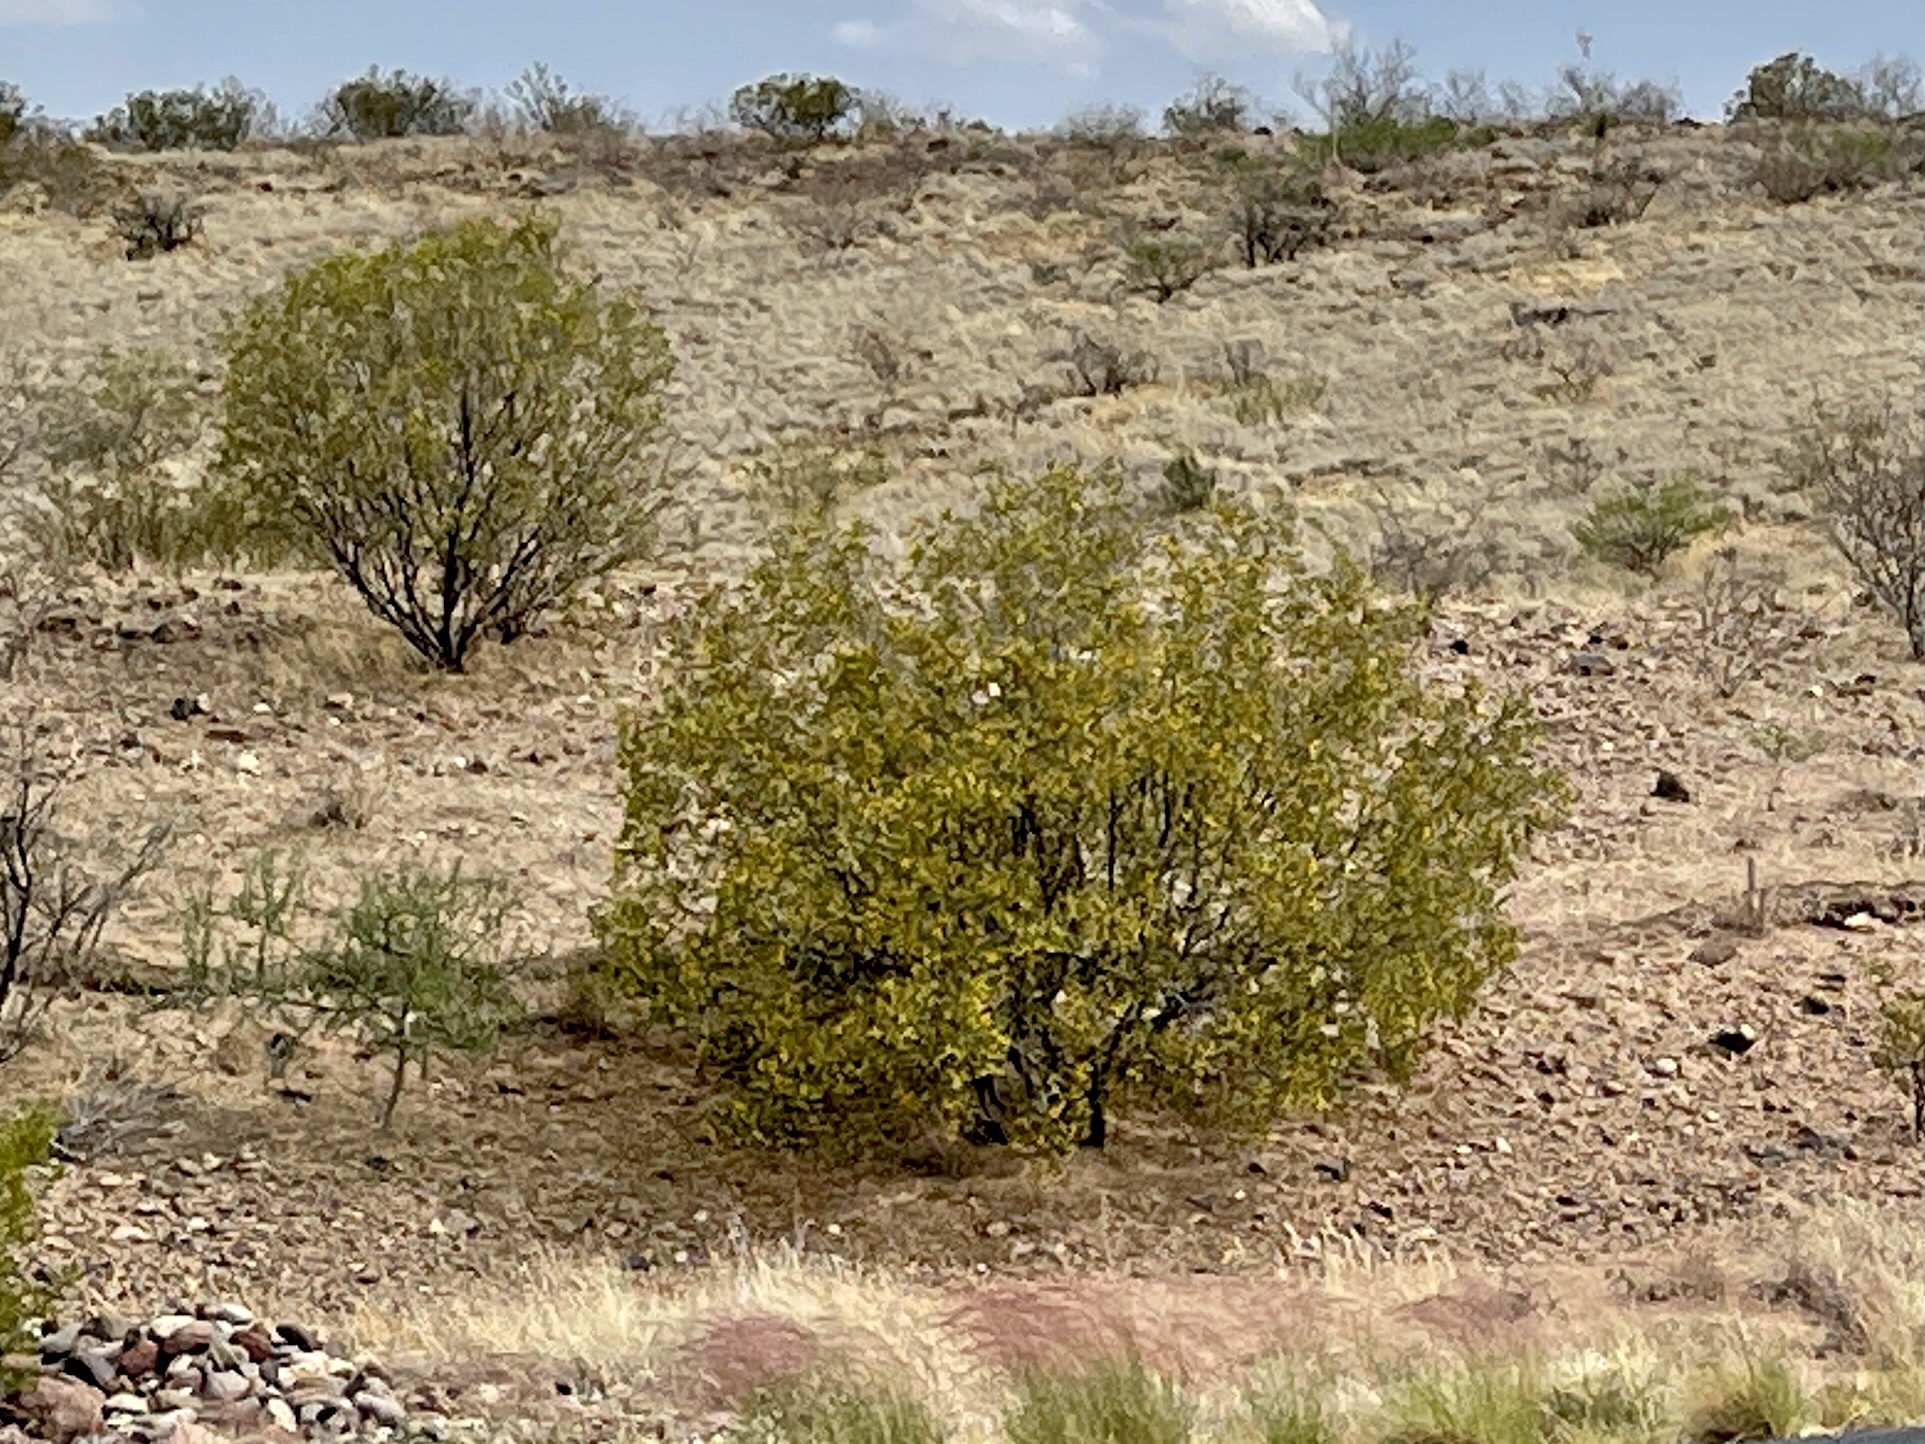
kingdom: Plantae
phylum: Tracheophyta
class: Magnoliopsida
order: Zygophyllales
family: Zygophyllaceae
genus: Larrea
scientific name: Larrea tridentata
